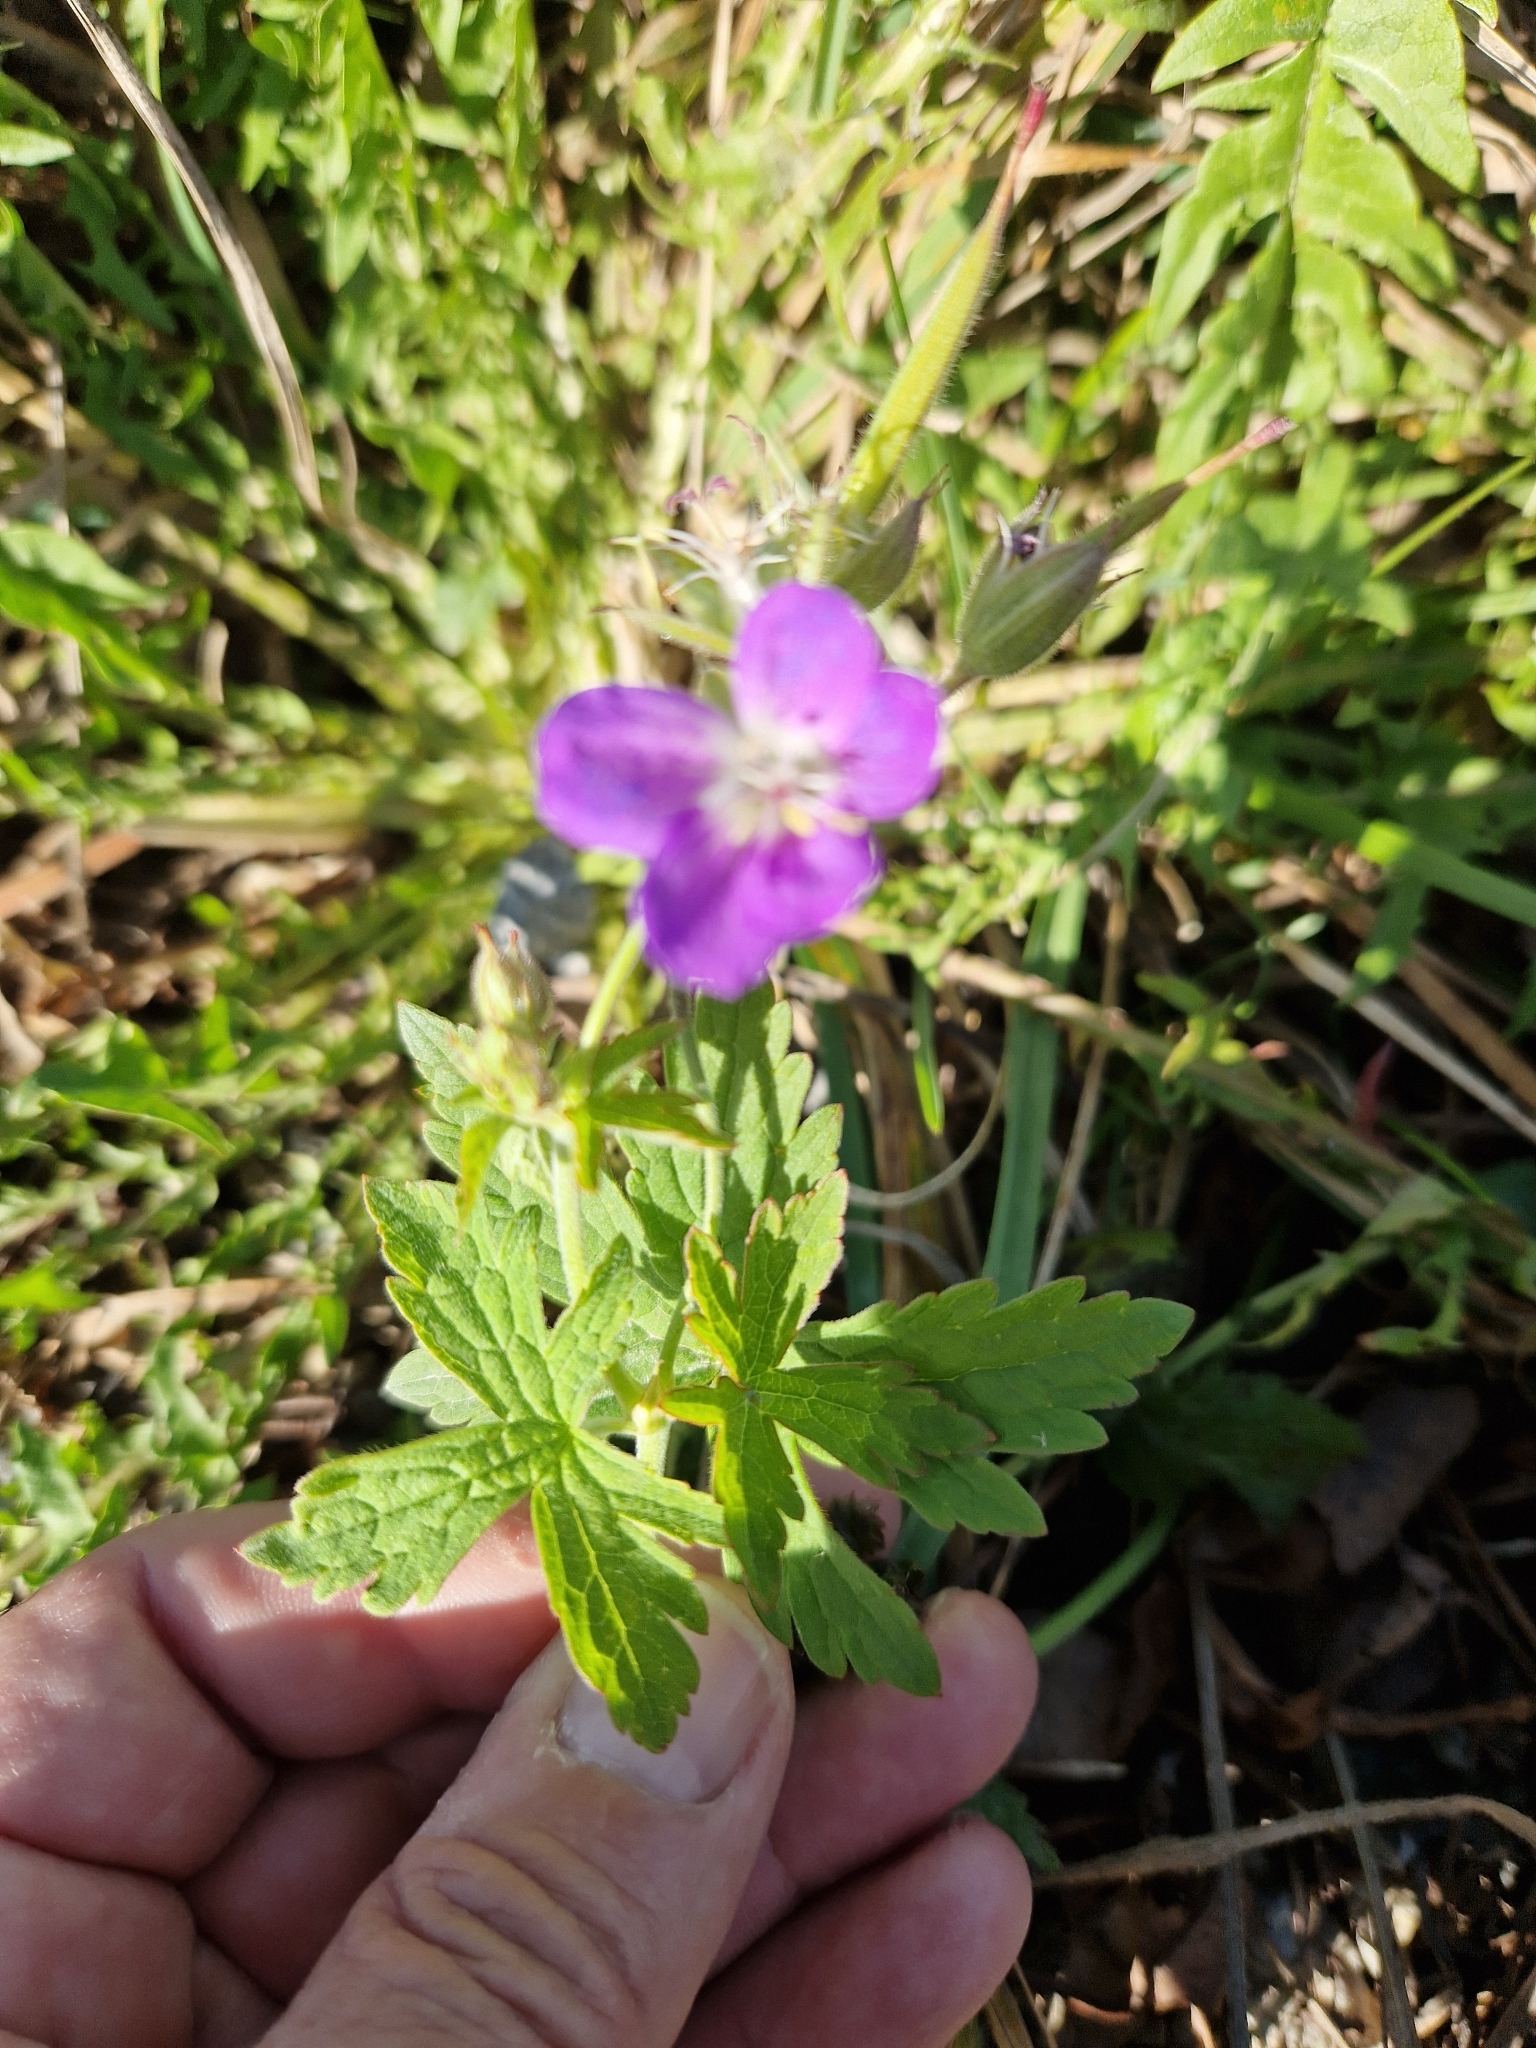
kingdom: Plantae
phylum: Tracheophyta
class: Magnoliopsida
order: Geraniales
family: Geraniaceae
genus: Geranium
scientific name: Geranium sylvaticum
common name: Wood crane's-bill
